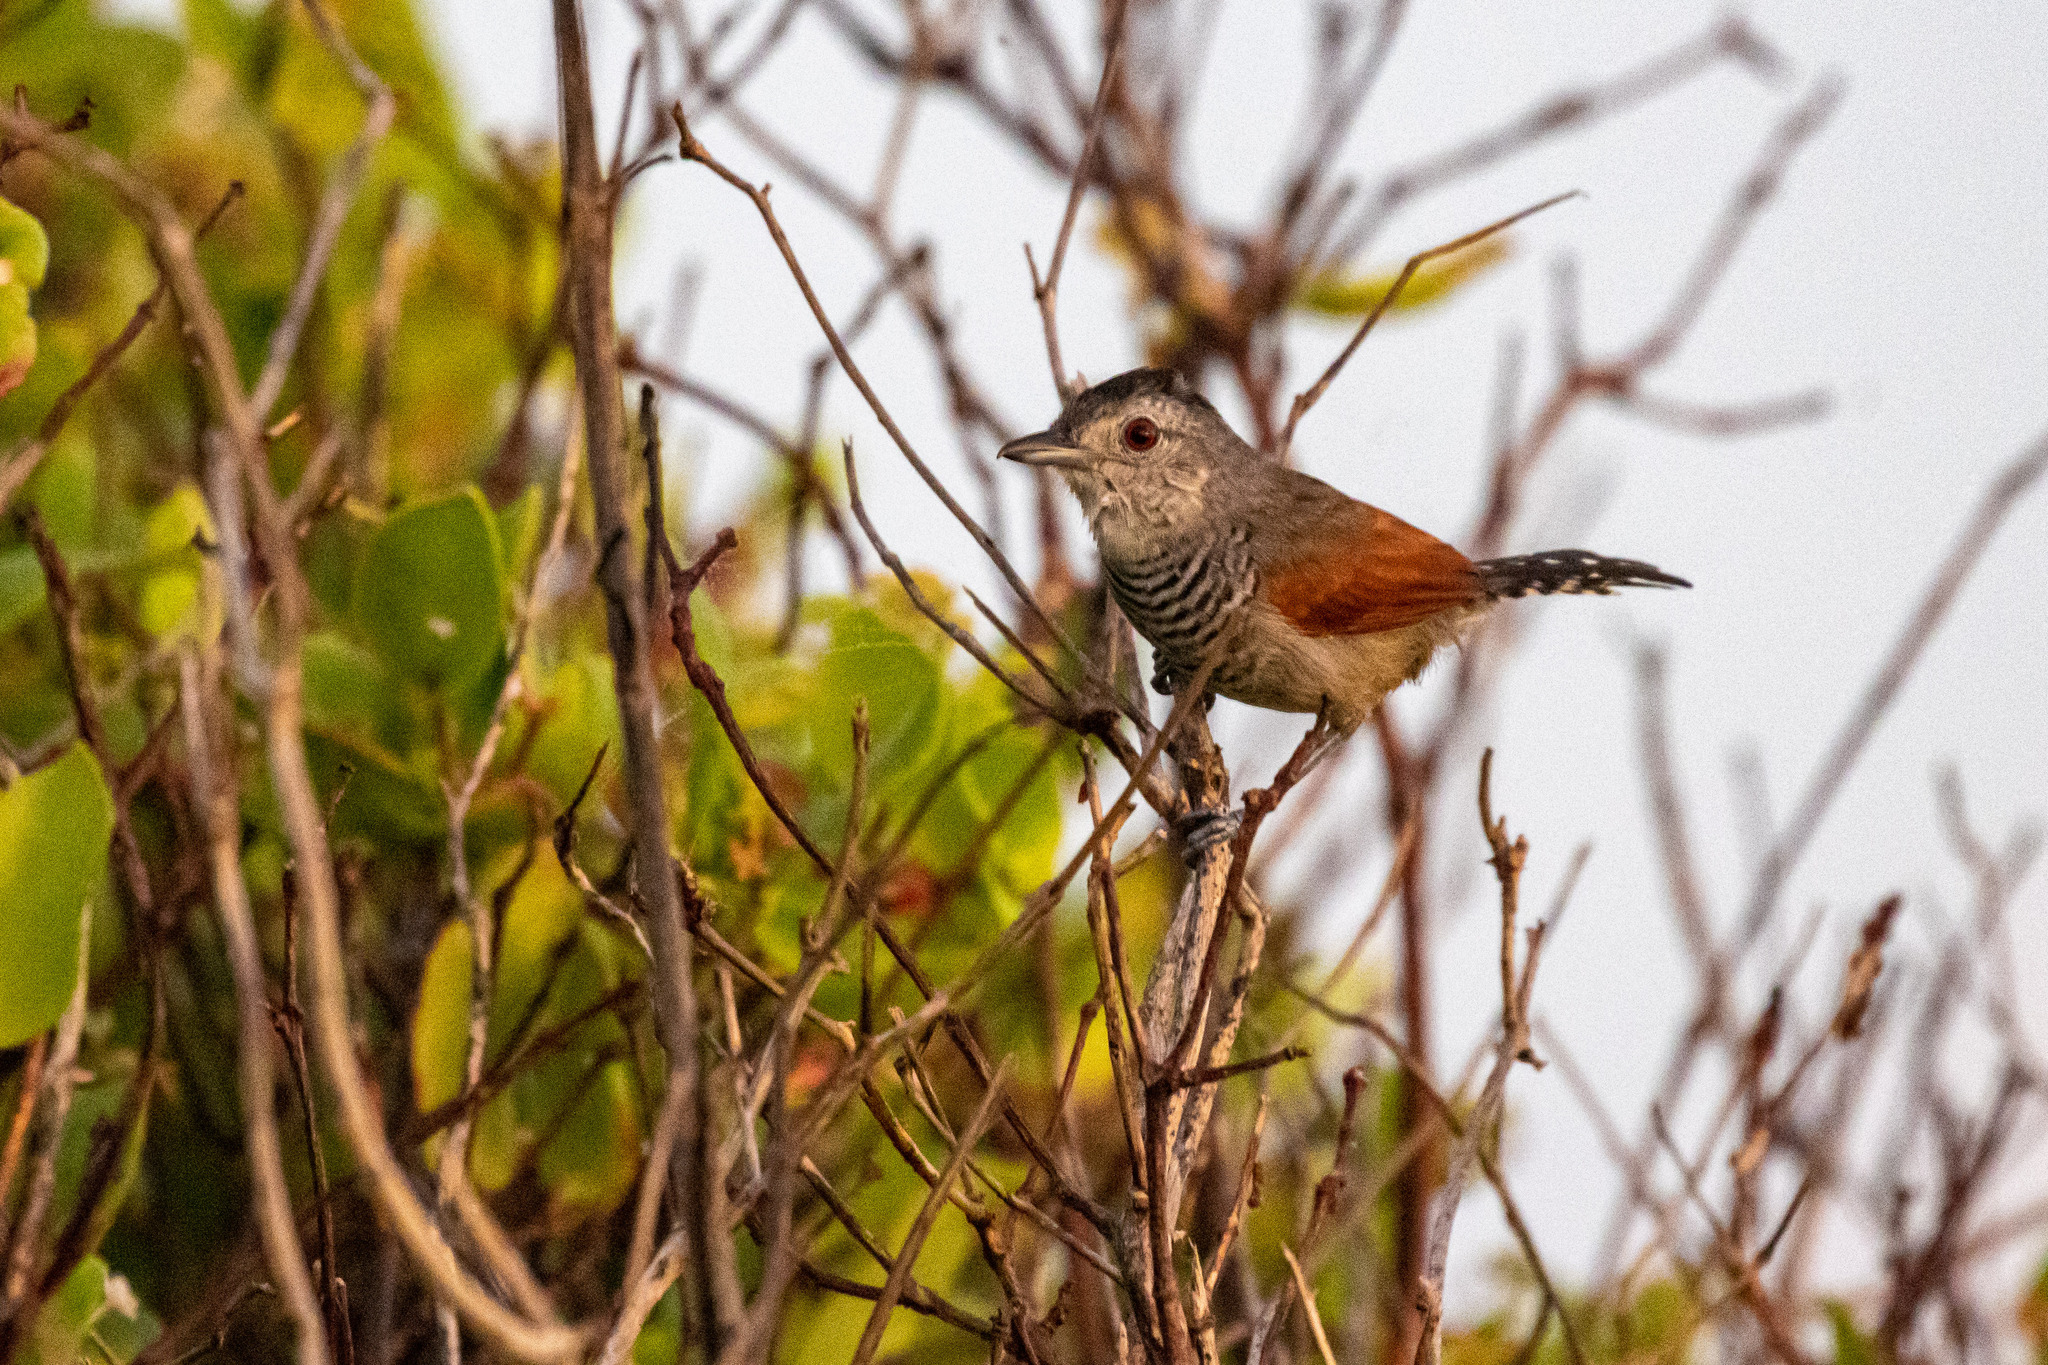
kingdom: Animalia
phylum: Chordata
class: Aves
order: Passeriformes
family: Thamnophilidae
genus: Thamnophilus
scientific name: Thamnophilus torquatus
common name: Rufous-winged antshrike
